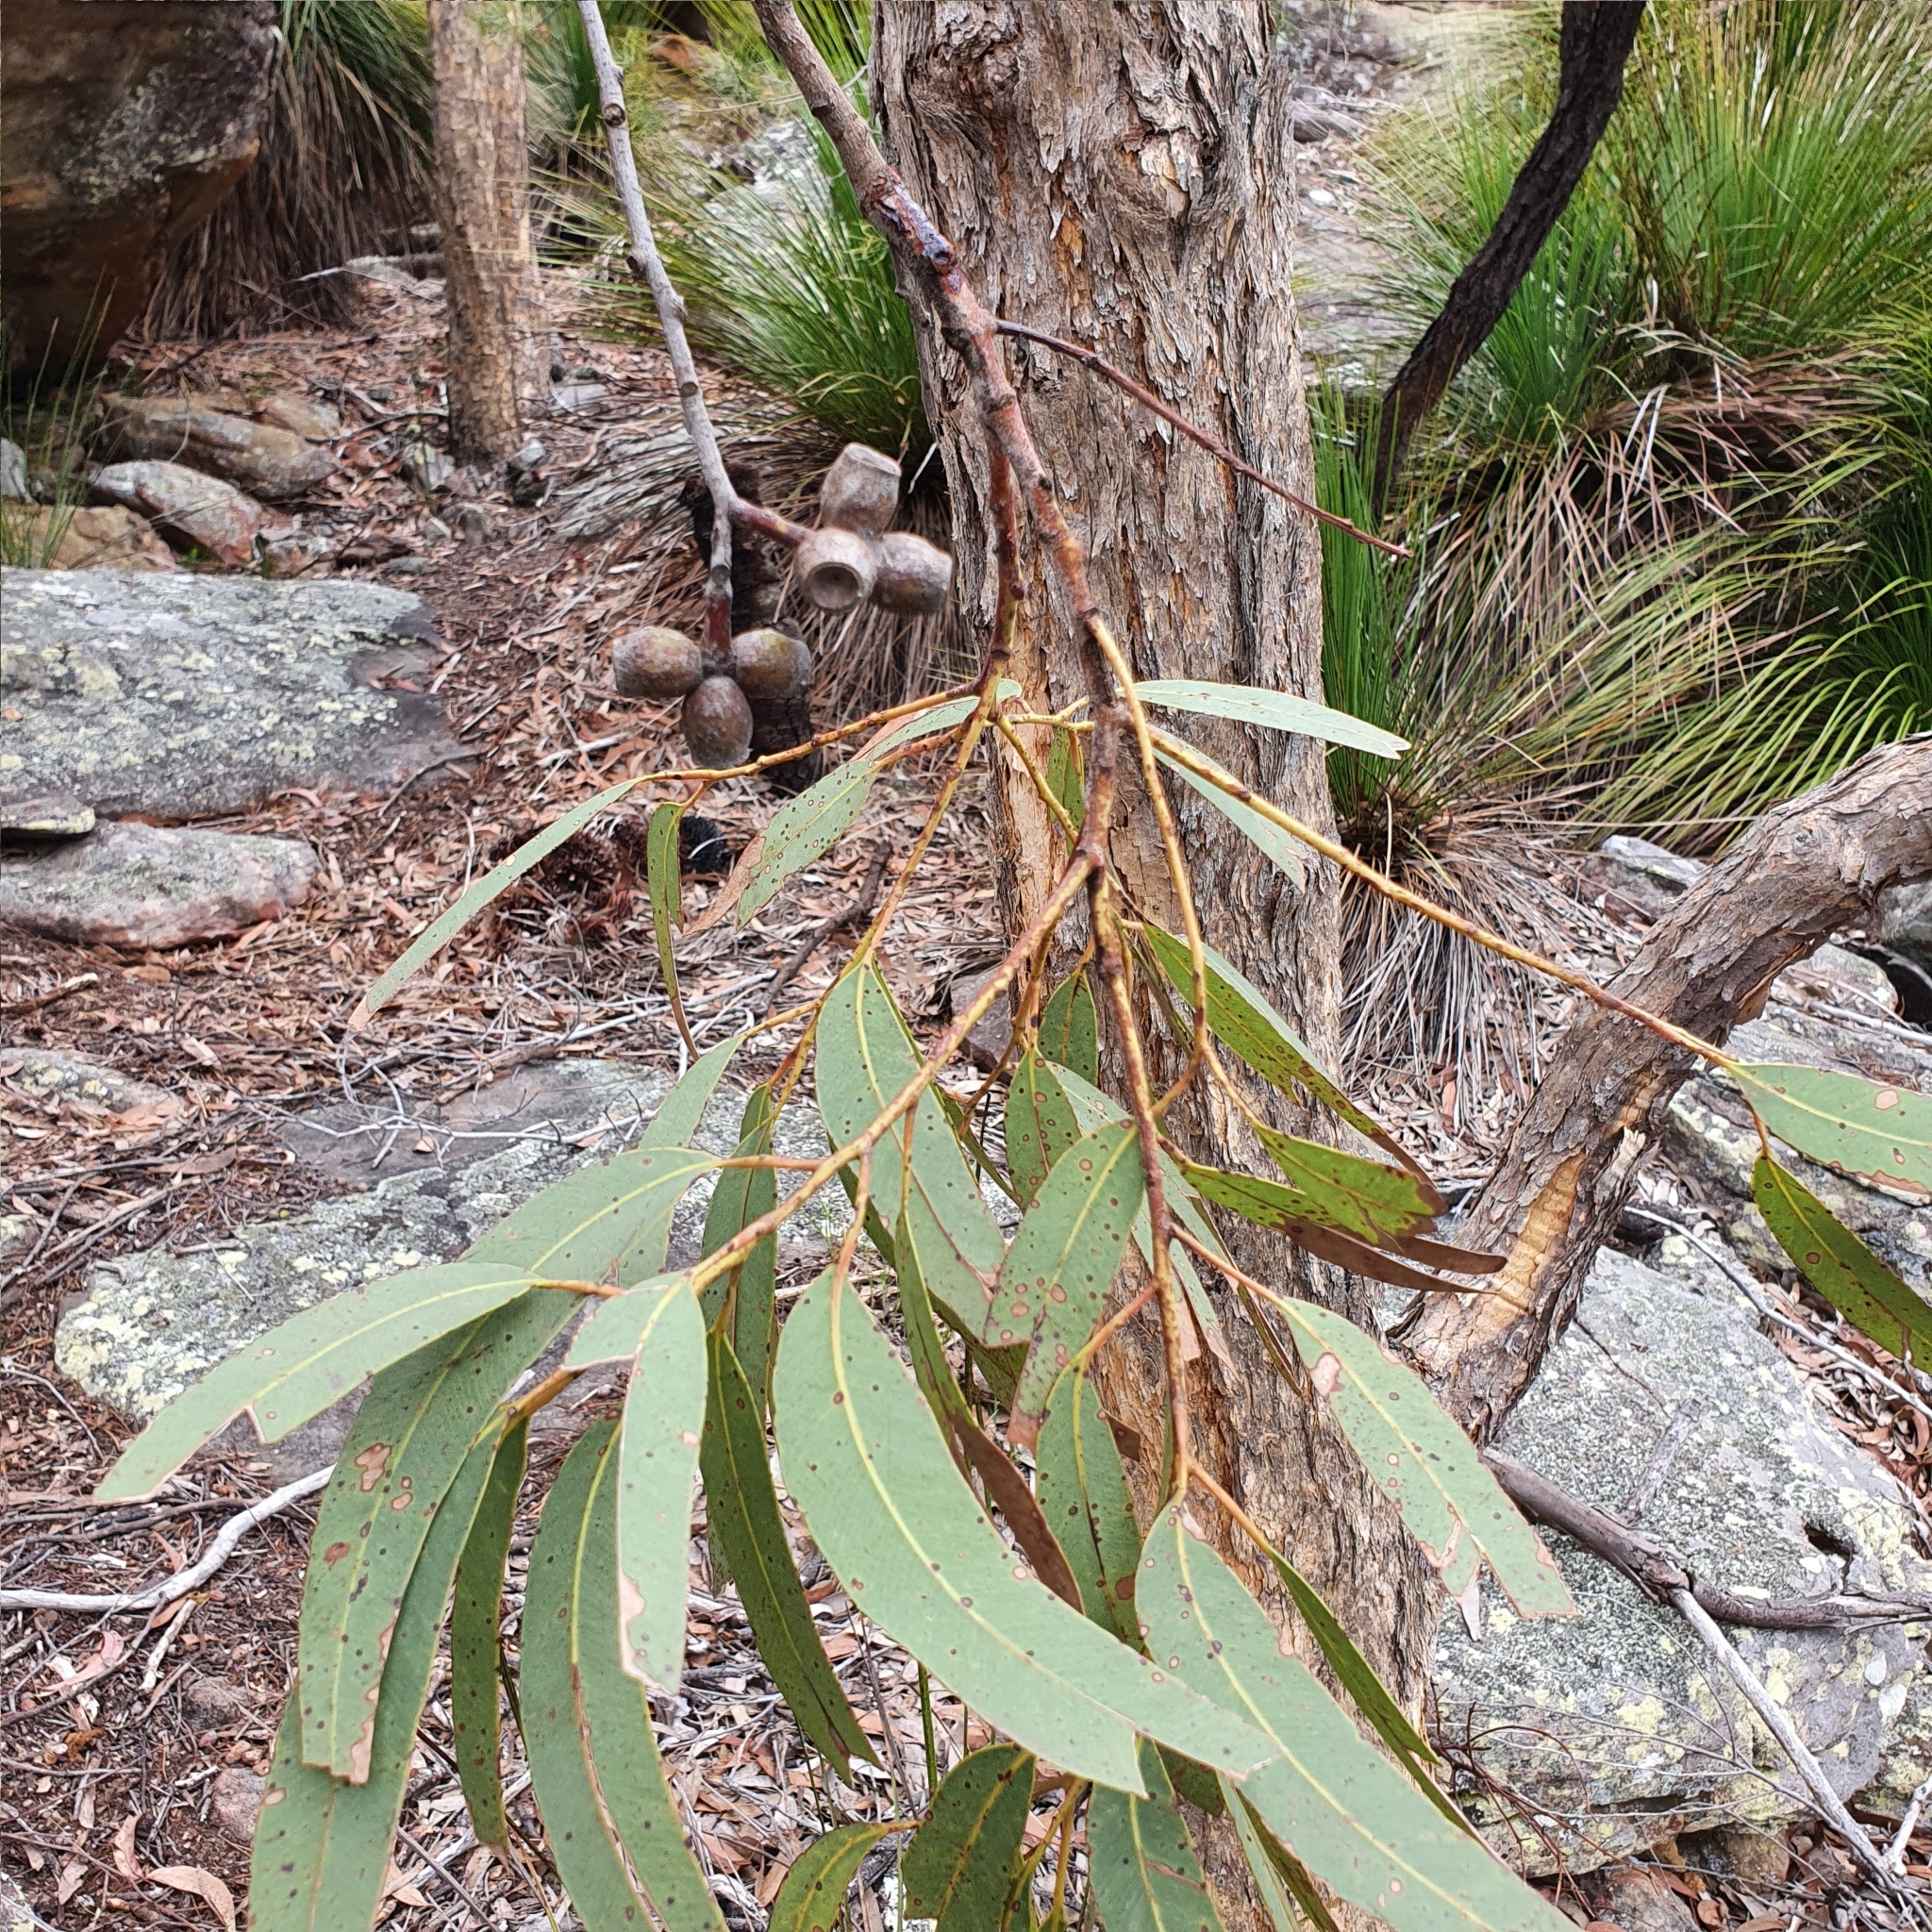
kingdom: Plantae
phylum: Tracheophyta
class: Magnoliopsida
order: Myrtales
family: Myrtaceae
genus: Corymbia
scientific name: Corymbia eximia
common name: Yellow bloodwood
